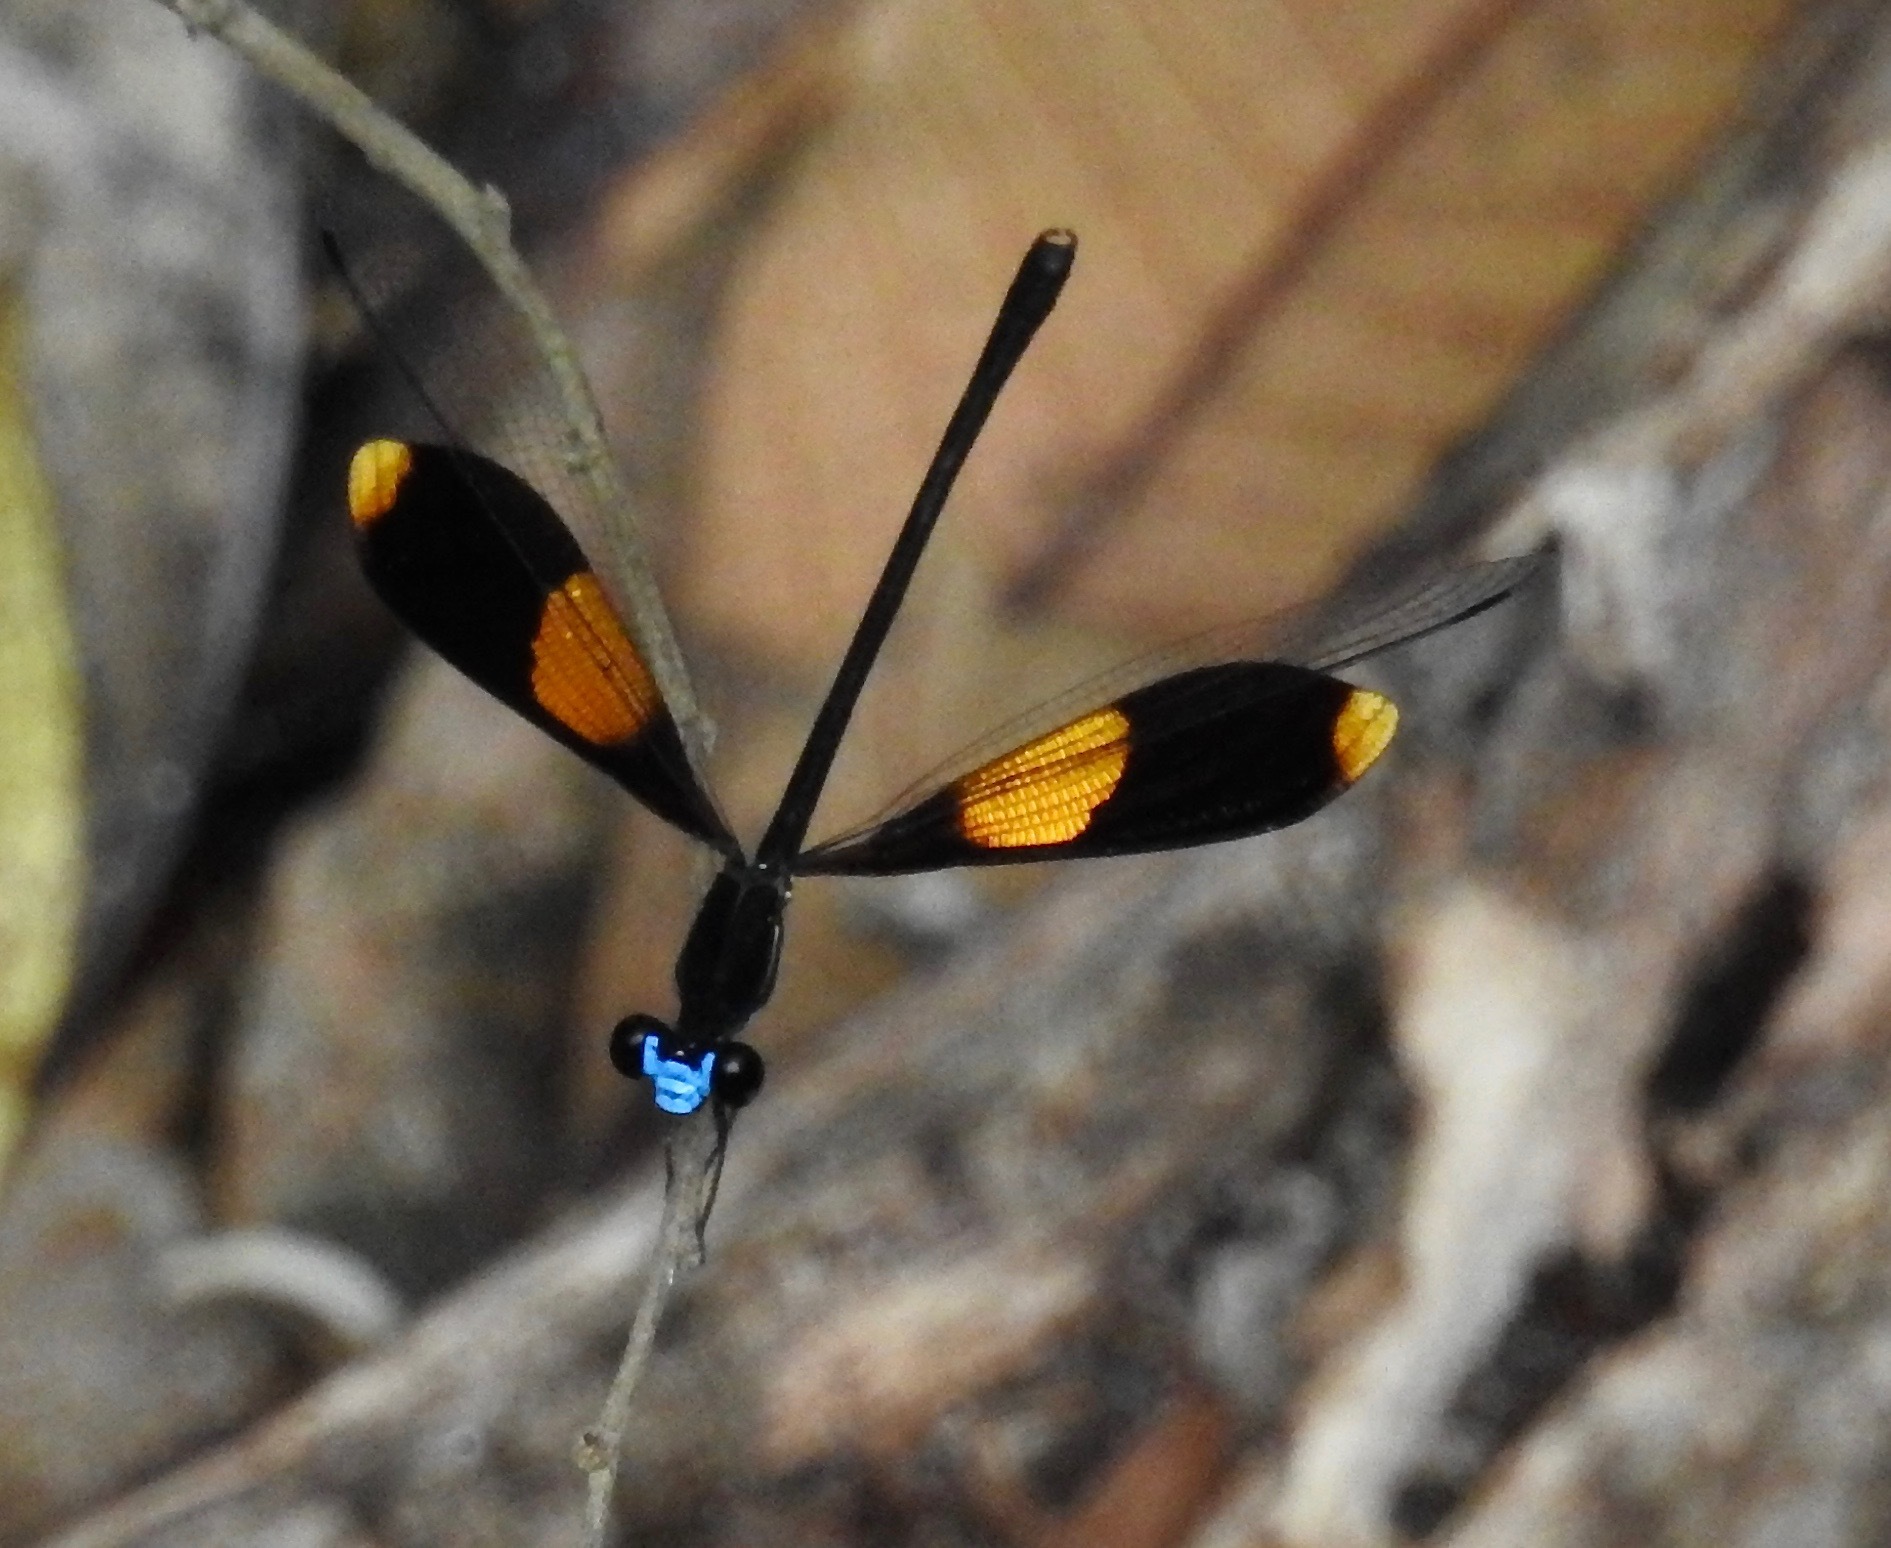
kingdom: Animalia
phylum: Arthropoda
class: Insecta
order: Odonata
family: Pseudolestidae
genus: Pseudolestes
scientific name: Pseudolestes mirabilis
